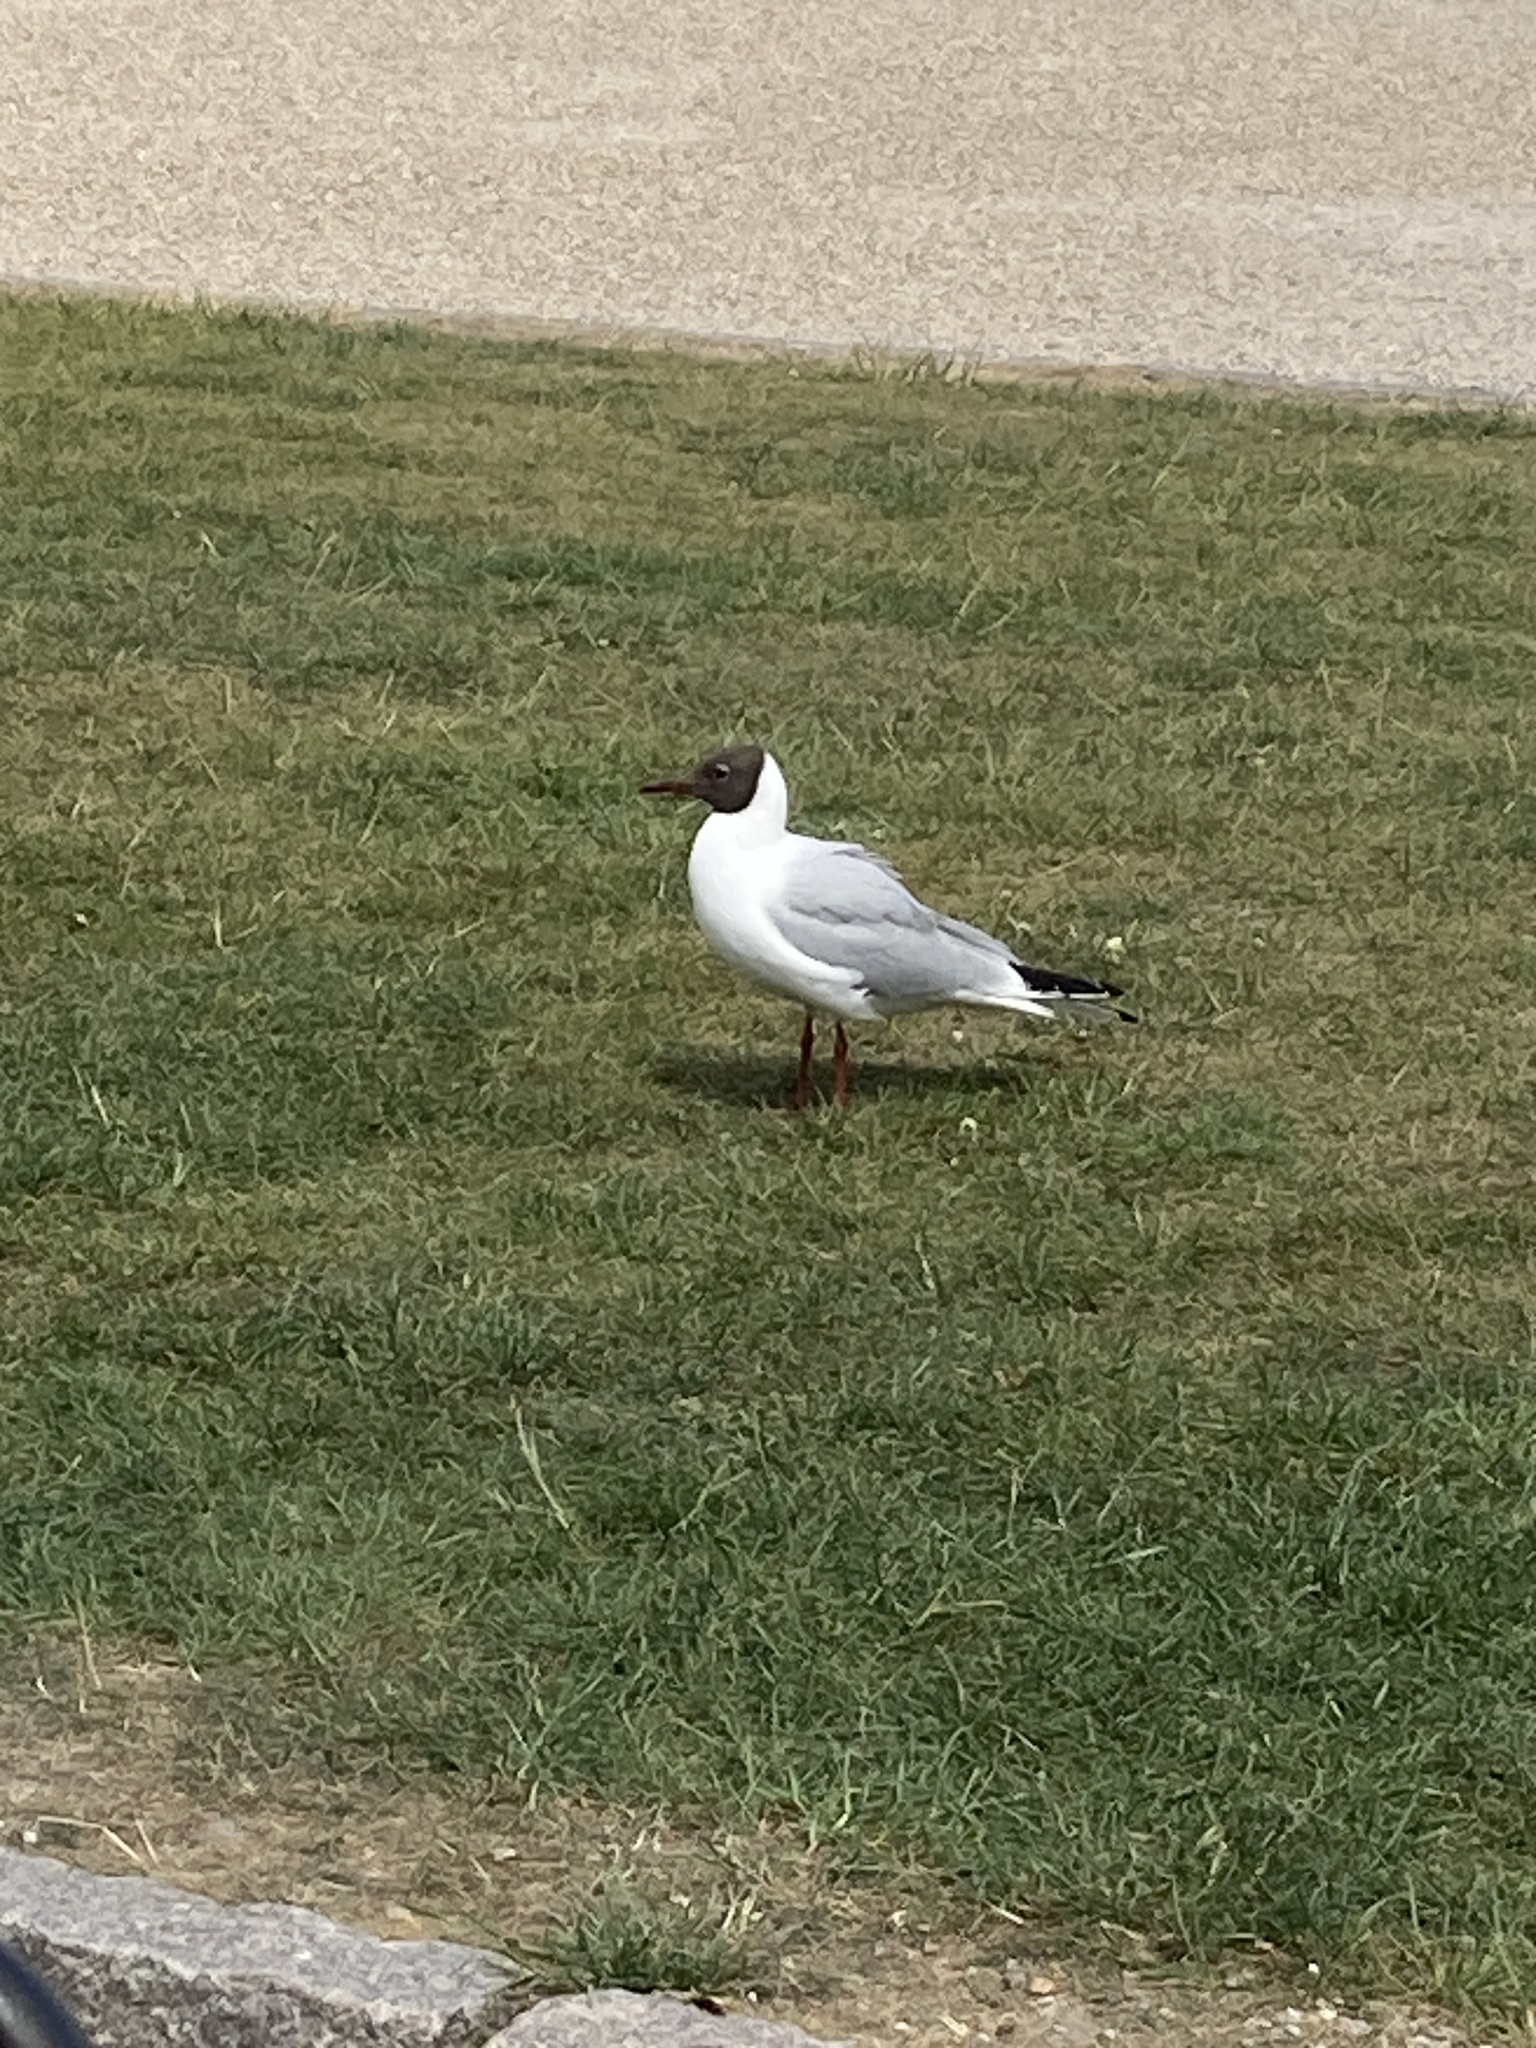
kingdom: Animalia
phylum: Chordata
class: Aves
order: Charadriiformes
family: Laridae
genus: Chroicocephalus
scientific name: Chroicocephalus ridibundus
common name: Black-headed gull
